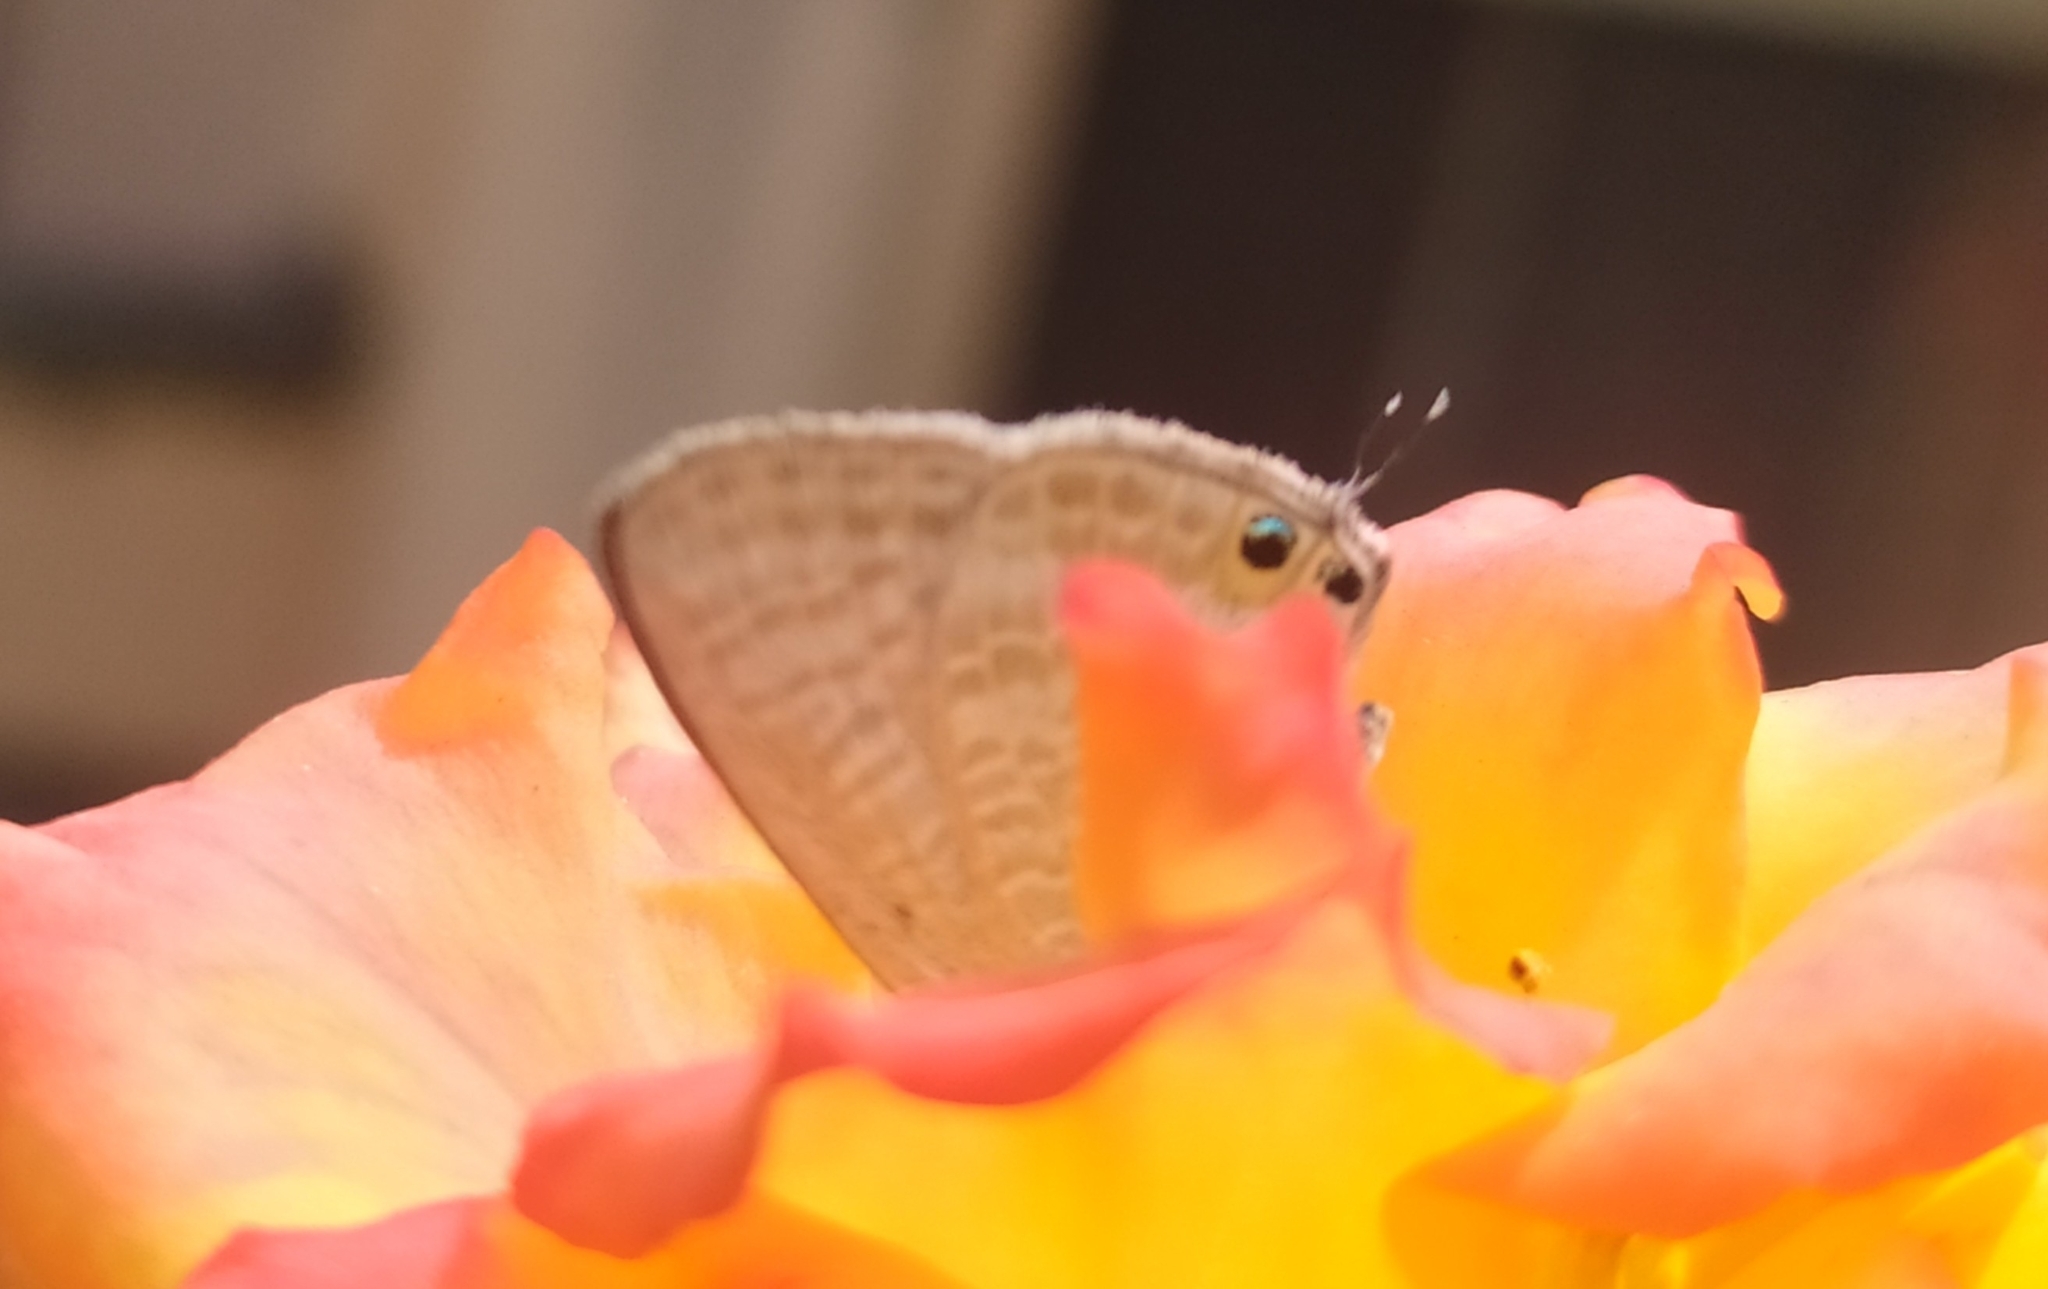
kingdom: Animalia
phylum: Arthropoda
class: Insecta
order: Lepidoptera
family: Lycaenidae
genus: Lampides
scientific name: Lampides boeticus
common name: Long-tailed blue
